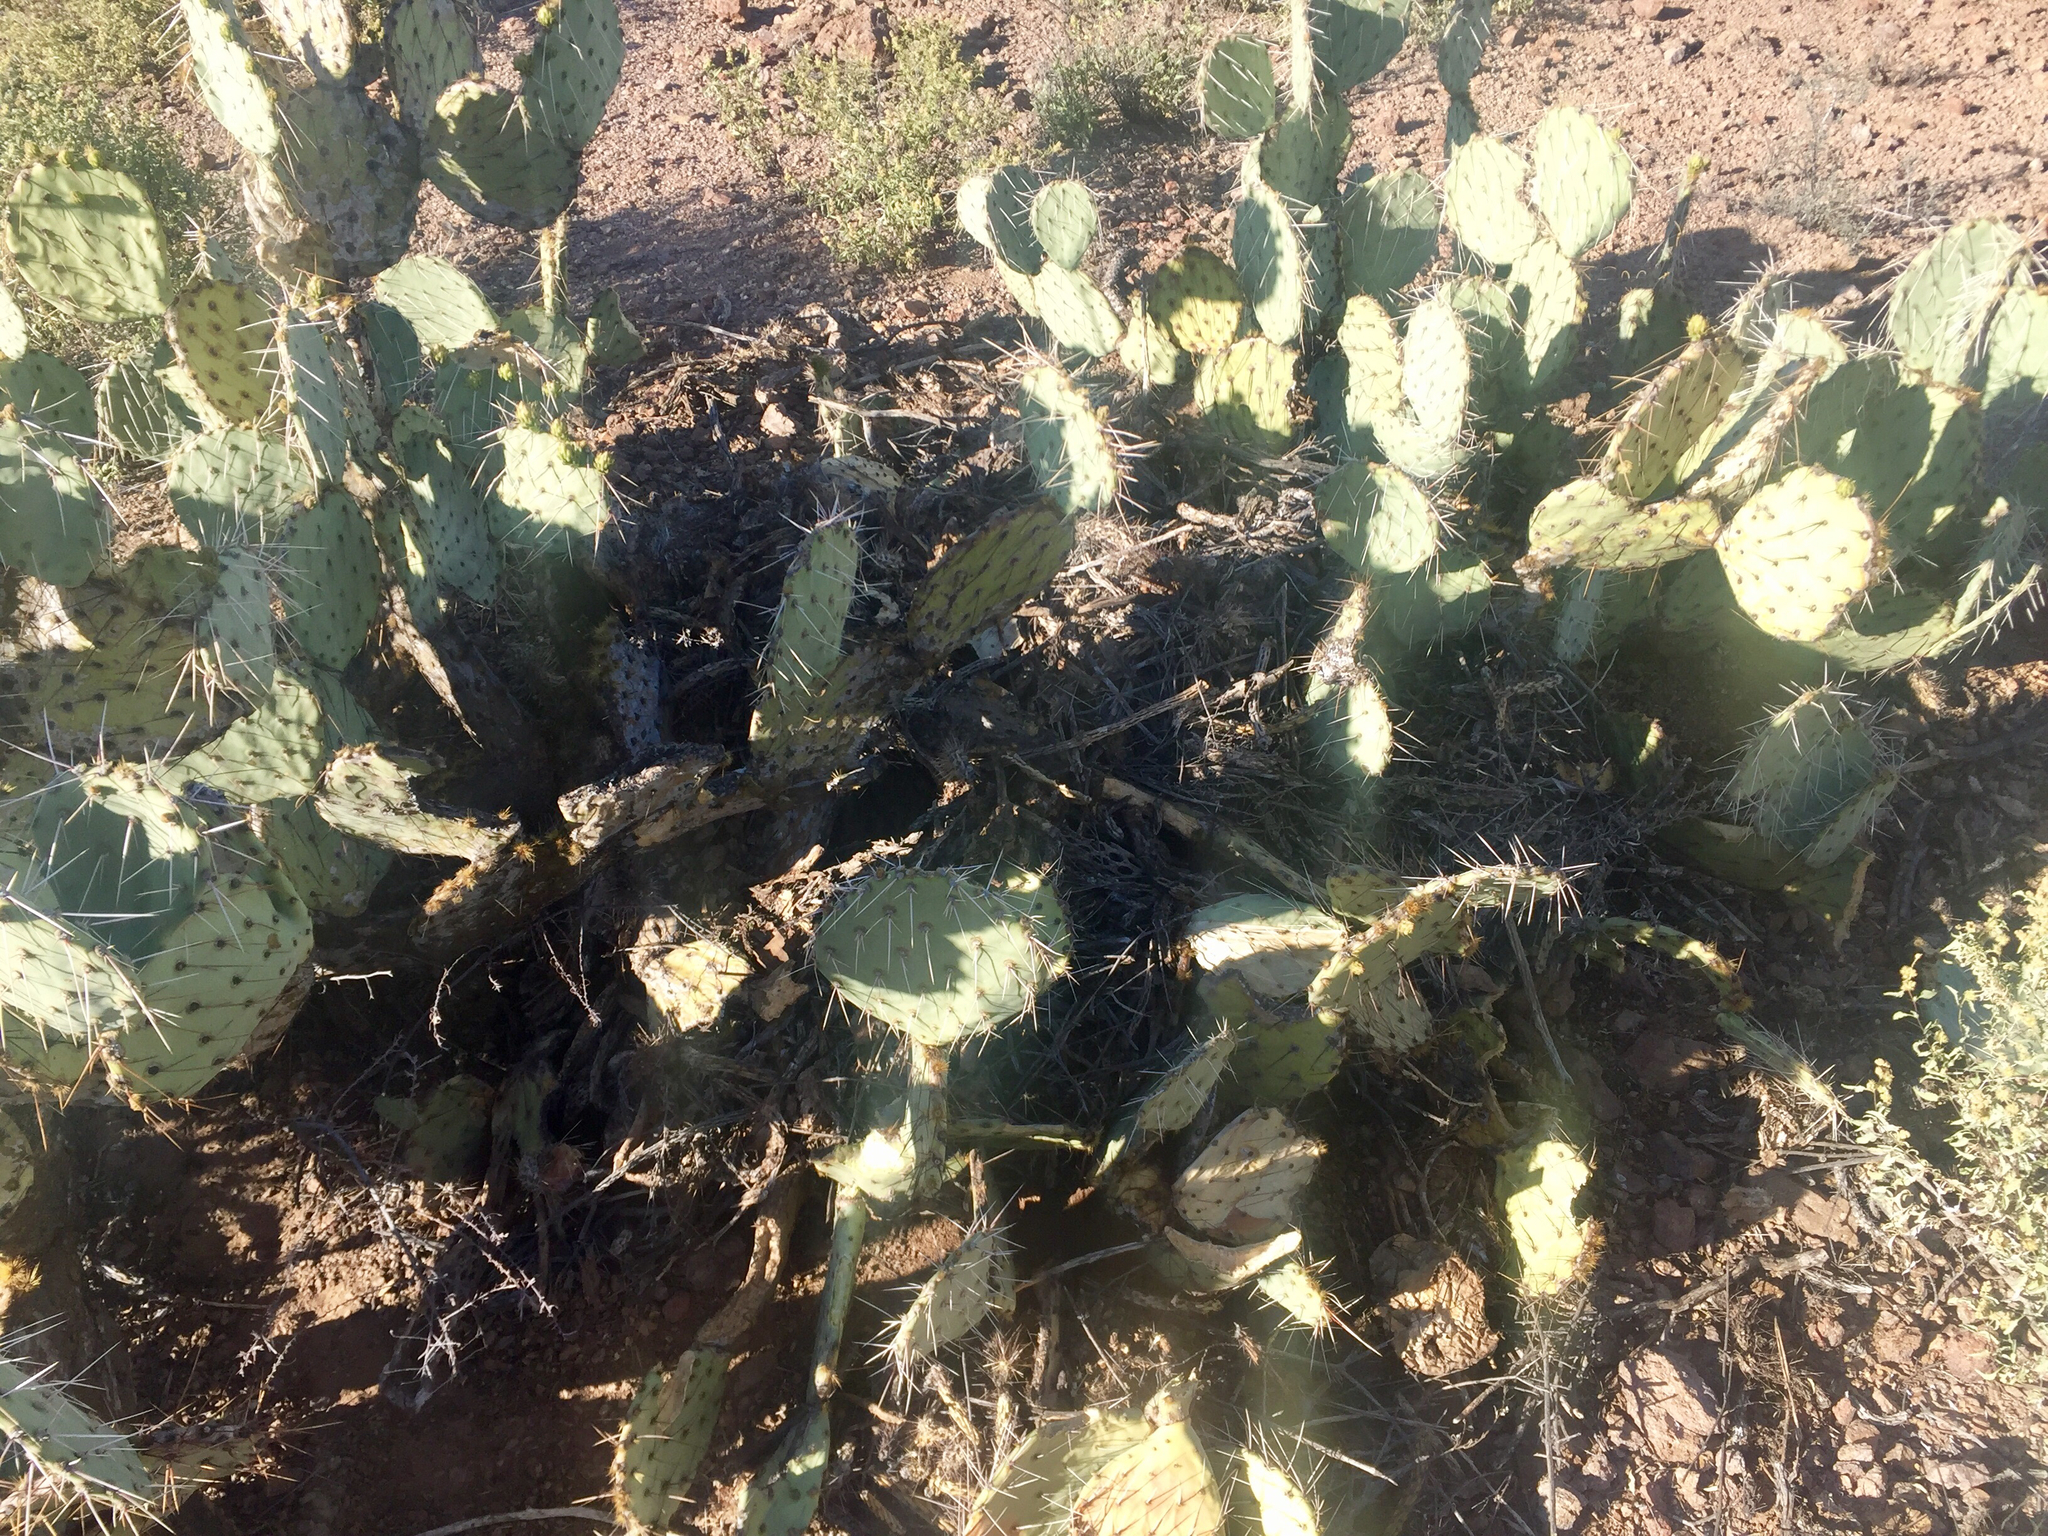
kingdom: Plantae
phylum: Tracheophyta
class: Magnoliopsida
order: Caryophyllales
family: Cactaceae
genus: Opuntia
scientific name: Opuntia engelmannii
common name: Cactus-apple
